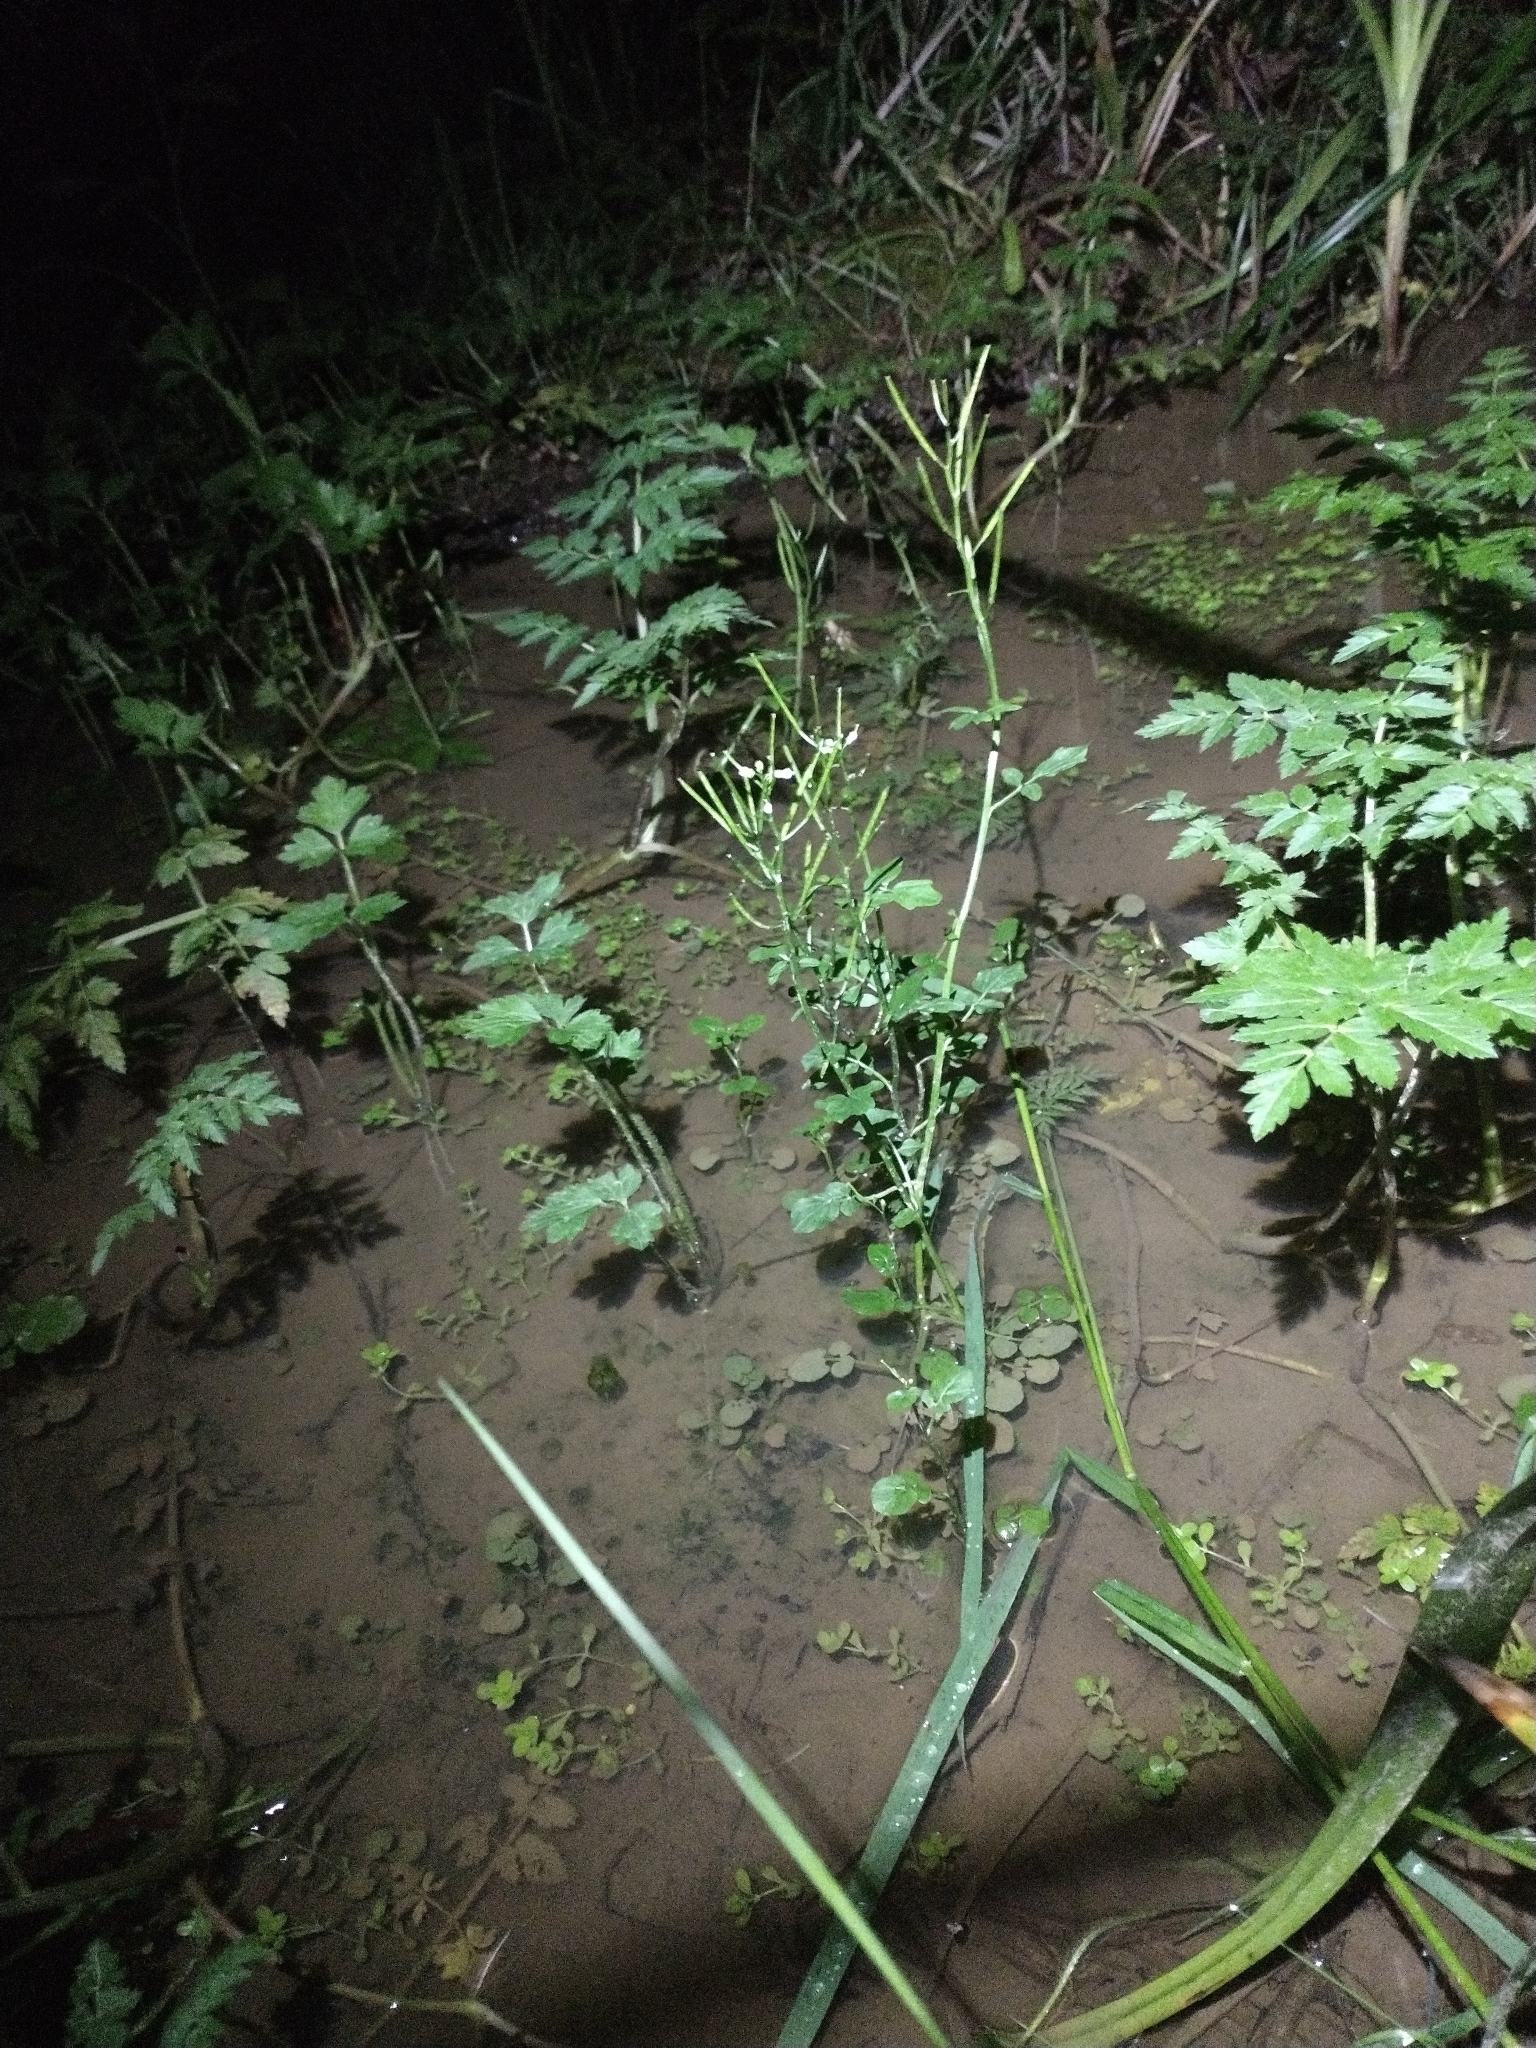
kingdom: Plantae
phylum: Tracheophyta
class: Magnoliopsida
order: Brassicales
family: Brassicaceae
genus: Cardamine
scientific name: Cardamine breweri
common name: Brewer's bittercress
